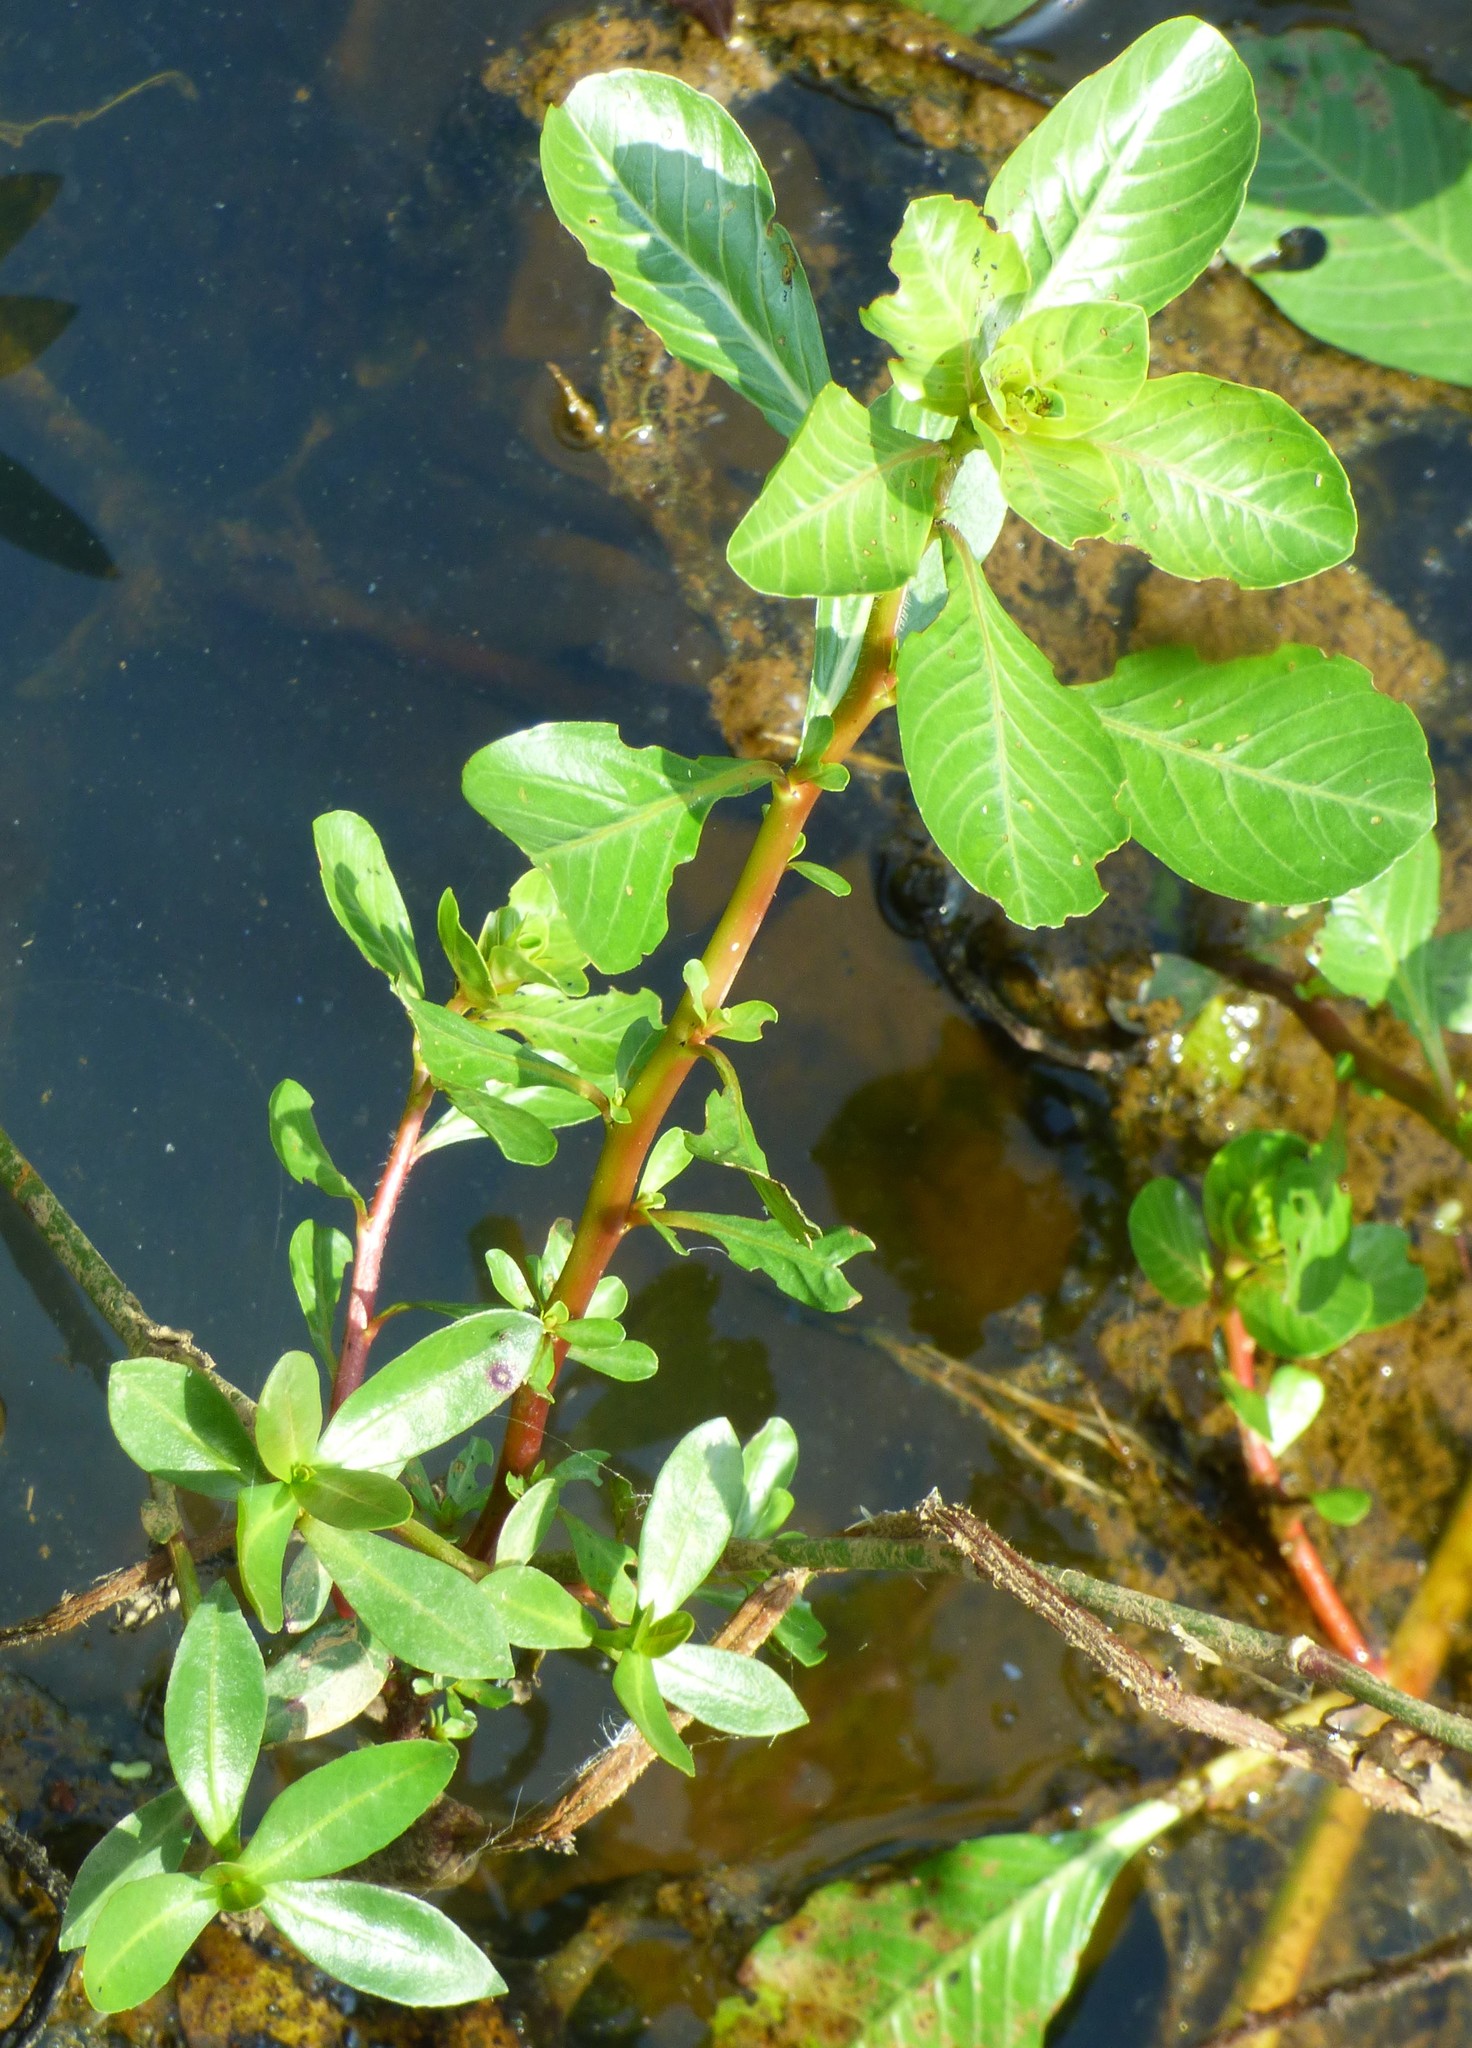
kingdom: Plantae
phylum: Tracheophyta
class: Magnoliopsida
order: Myrtales
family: Onagraceae
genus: Ludwigia
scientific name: Ludwigia peploides
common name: Floating primrose-willow
